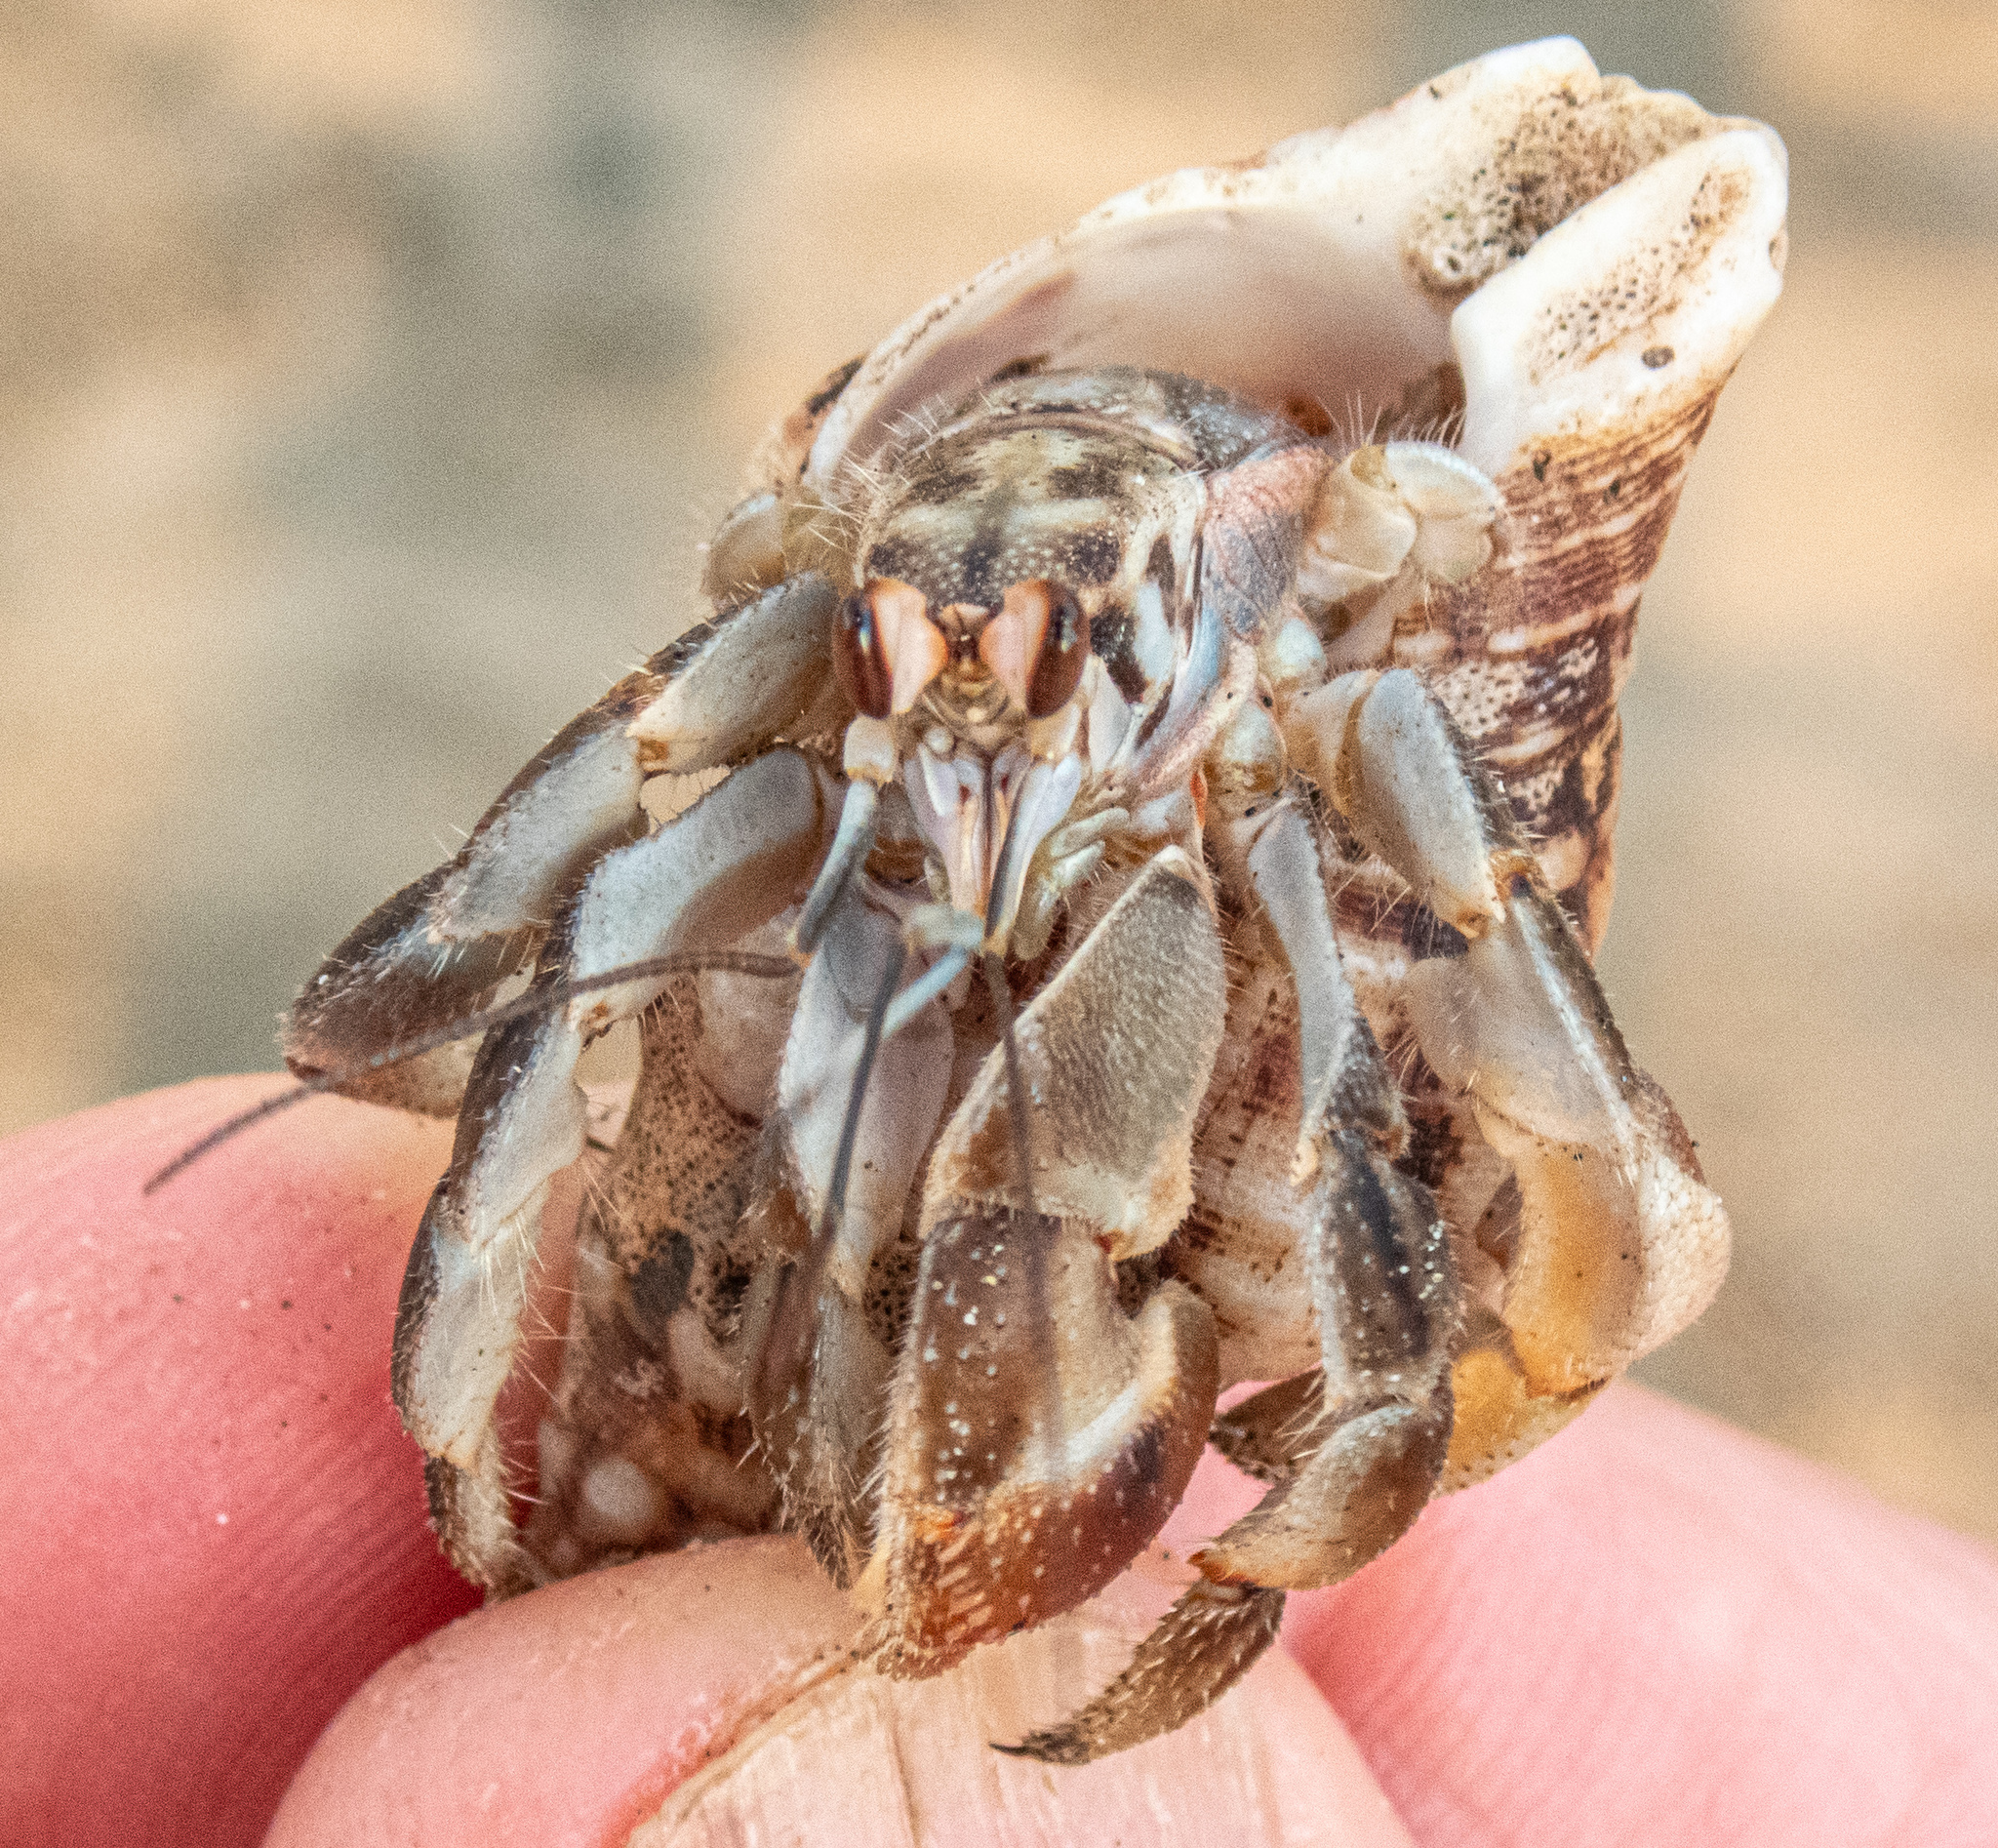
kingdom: Animalia
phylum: Arthropoda
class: Malacostraca
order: Decapoda
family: Coenobitidae
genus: Coenobita
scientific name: Coenobita compressus
